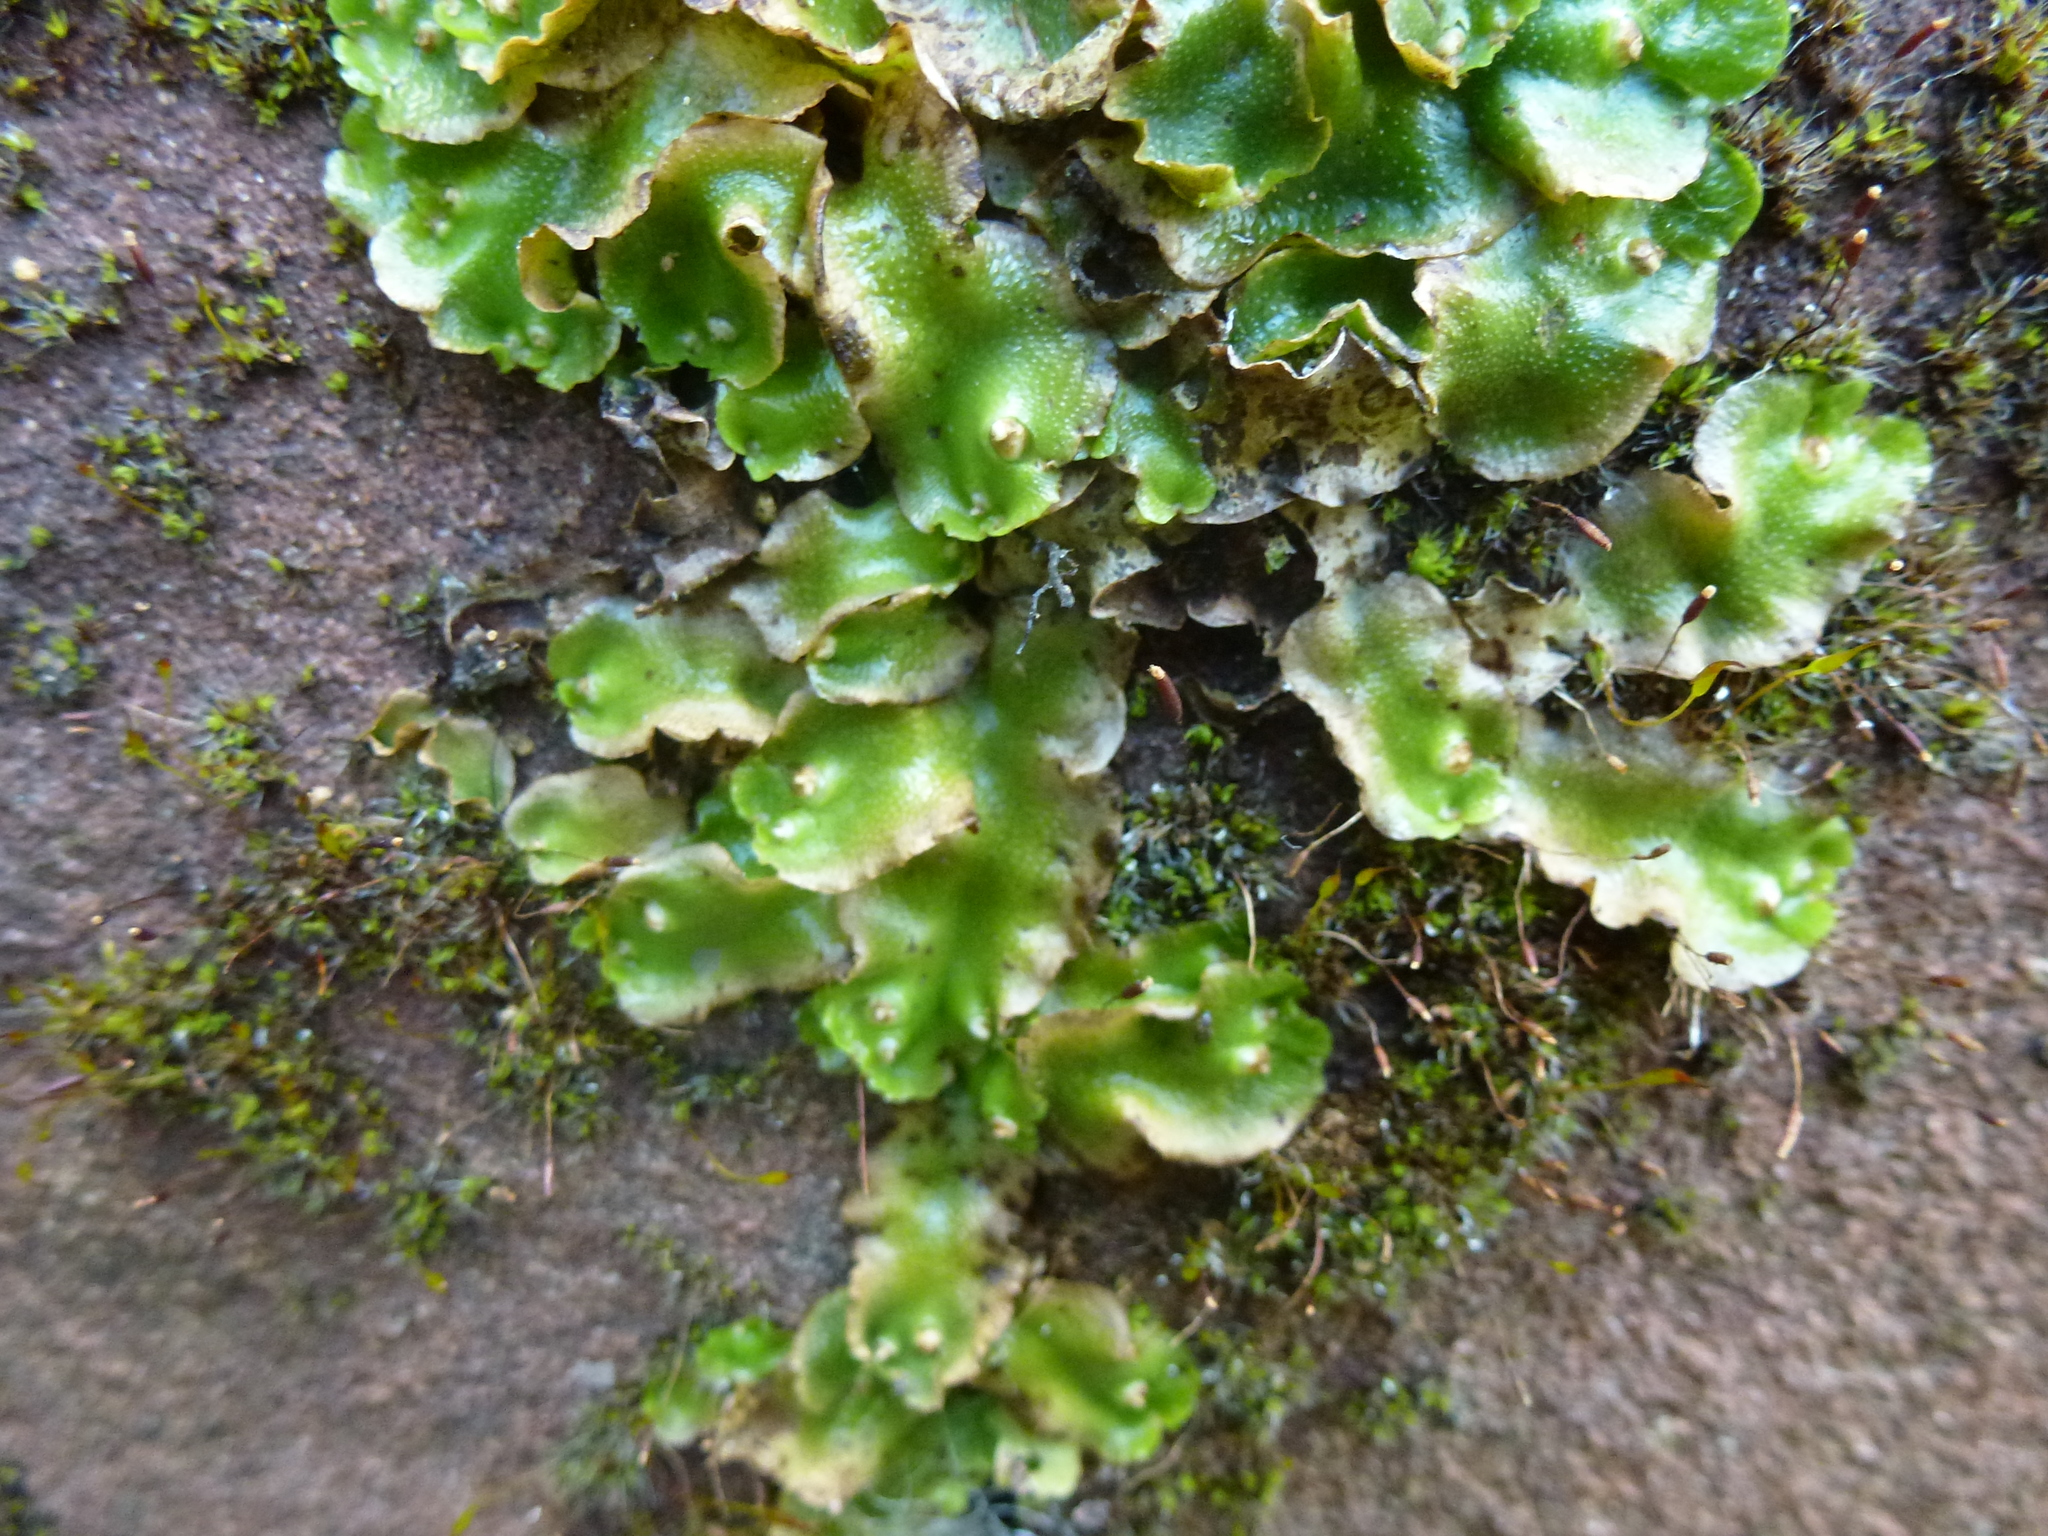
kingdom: Plantae
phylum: Marchantiophyta
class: Marchantiopsida
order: Lunulariales
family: Lunulariaceae
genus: Lunularia
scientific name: Lunularia cruciata
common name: Crescent-cup liverwort
